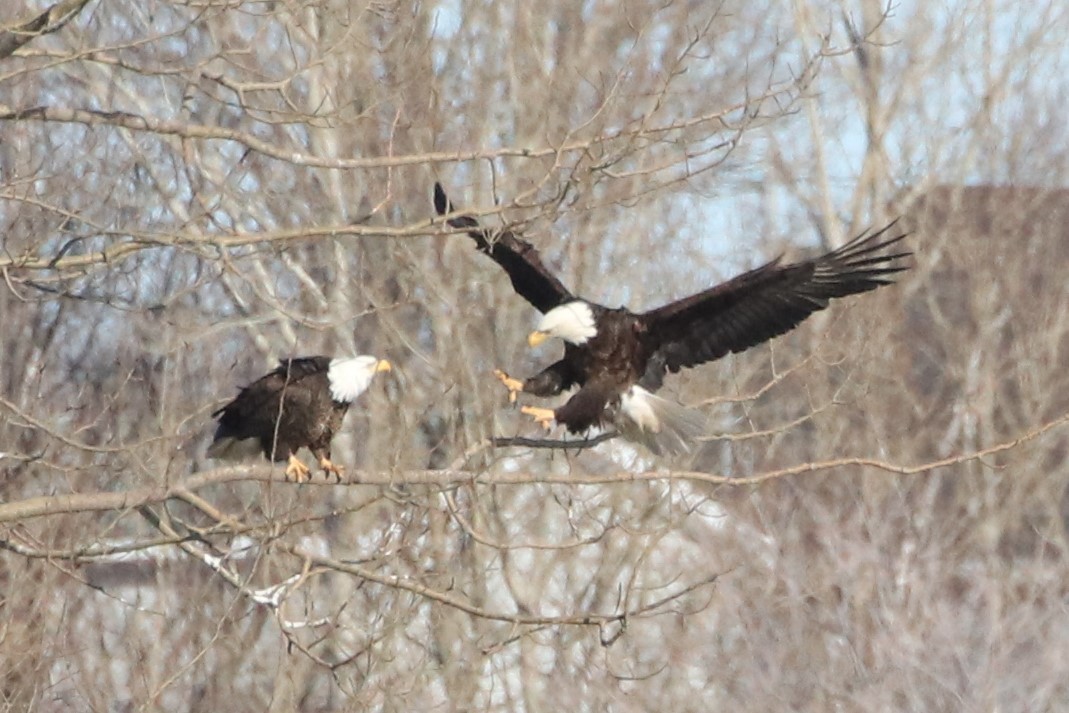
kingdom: Animalia
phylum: Chordata
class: Aves
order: Accipitriformes
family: Accipitridae
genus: Haliaeetus
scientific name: Haliaeetus leucocephalus
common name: Bald eagle
